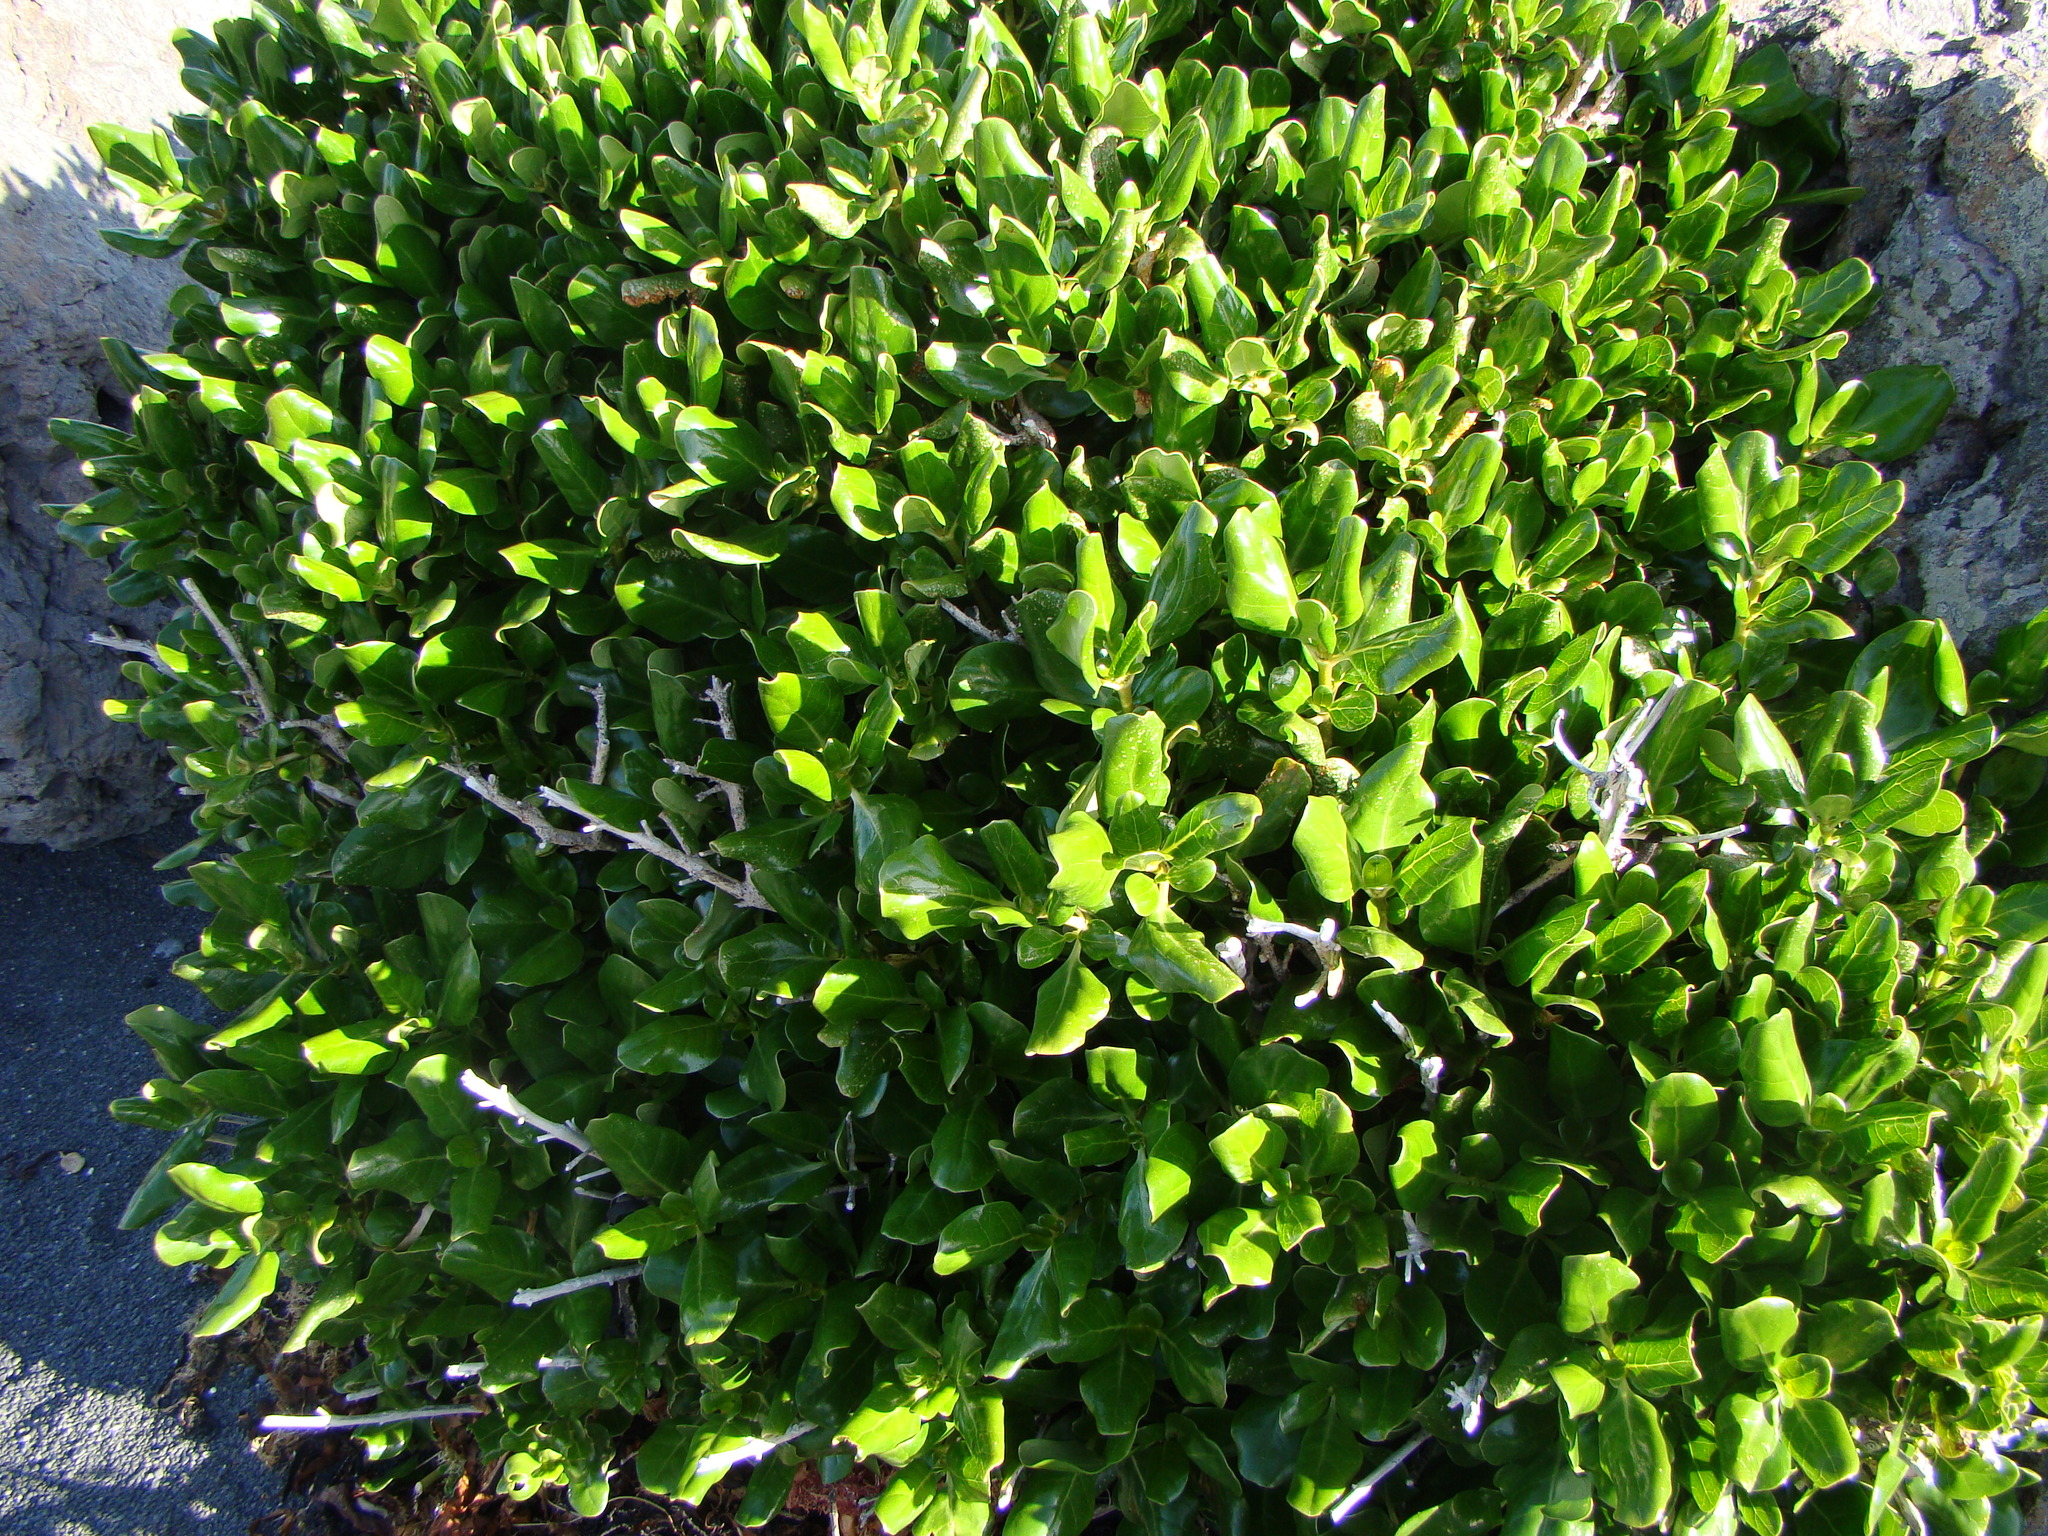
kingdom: Plantae
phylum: Tracheophyta
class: Magnoliopsida
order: Gentianales
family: Rubiaceae
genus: Coprosma
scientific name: Coprosma repens
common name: Tree bedstraw
